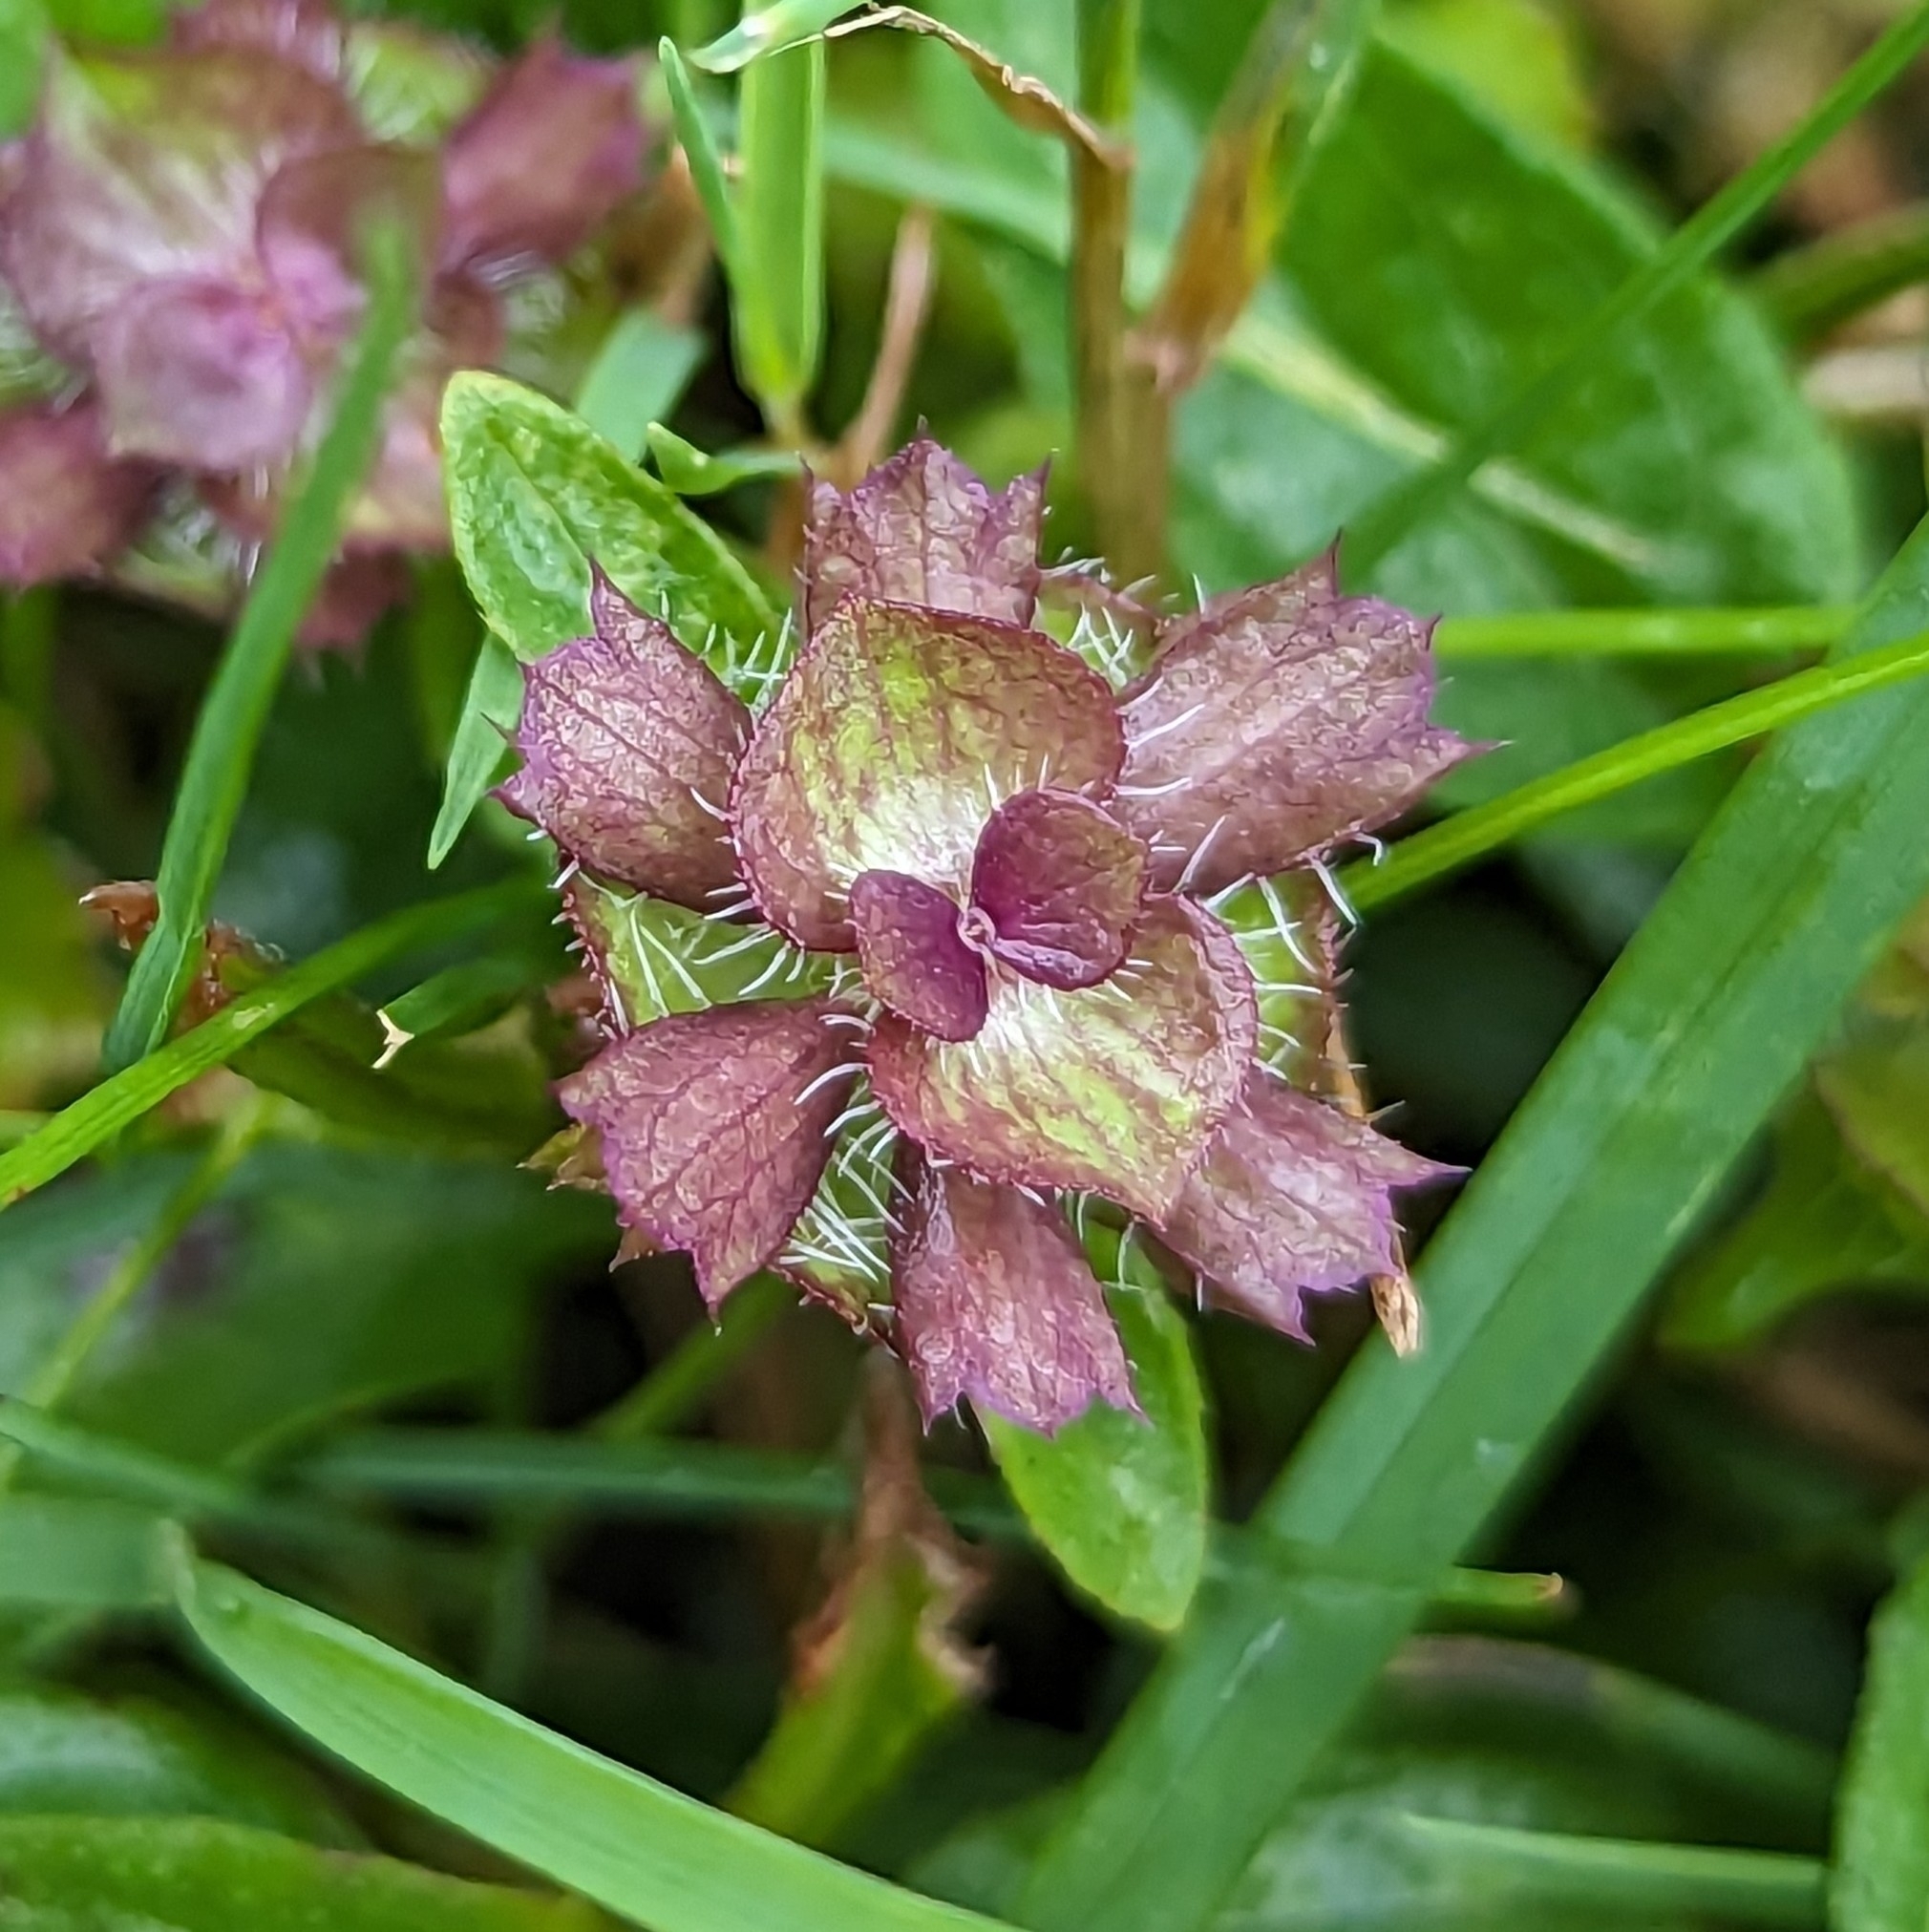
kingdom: Plantae
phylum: Tracheophyta
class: Magnoliopsida
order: Lamiales
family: Lamiaceae
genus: Prunella
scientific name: Prunella vulgaris
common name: Heal-all
